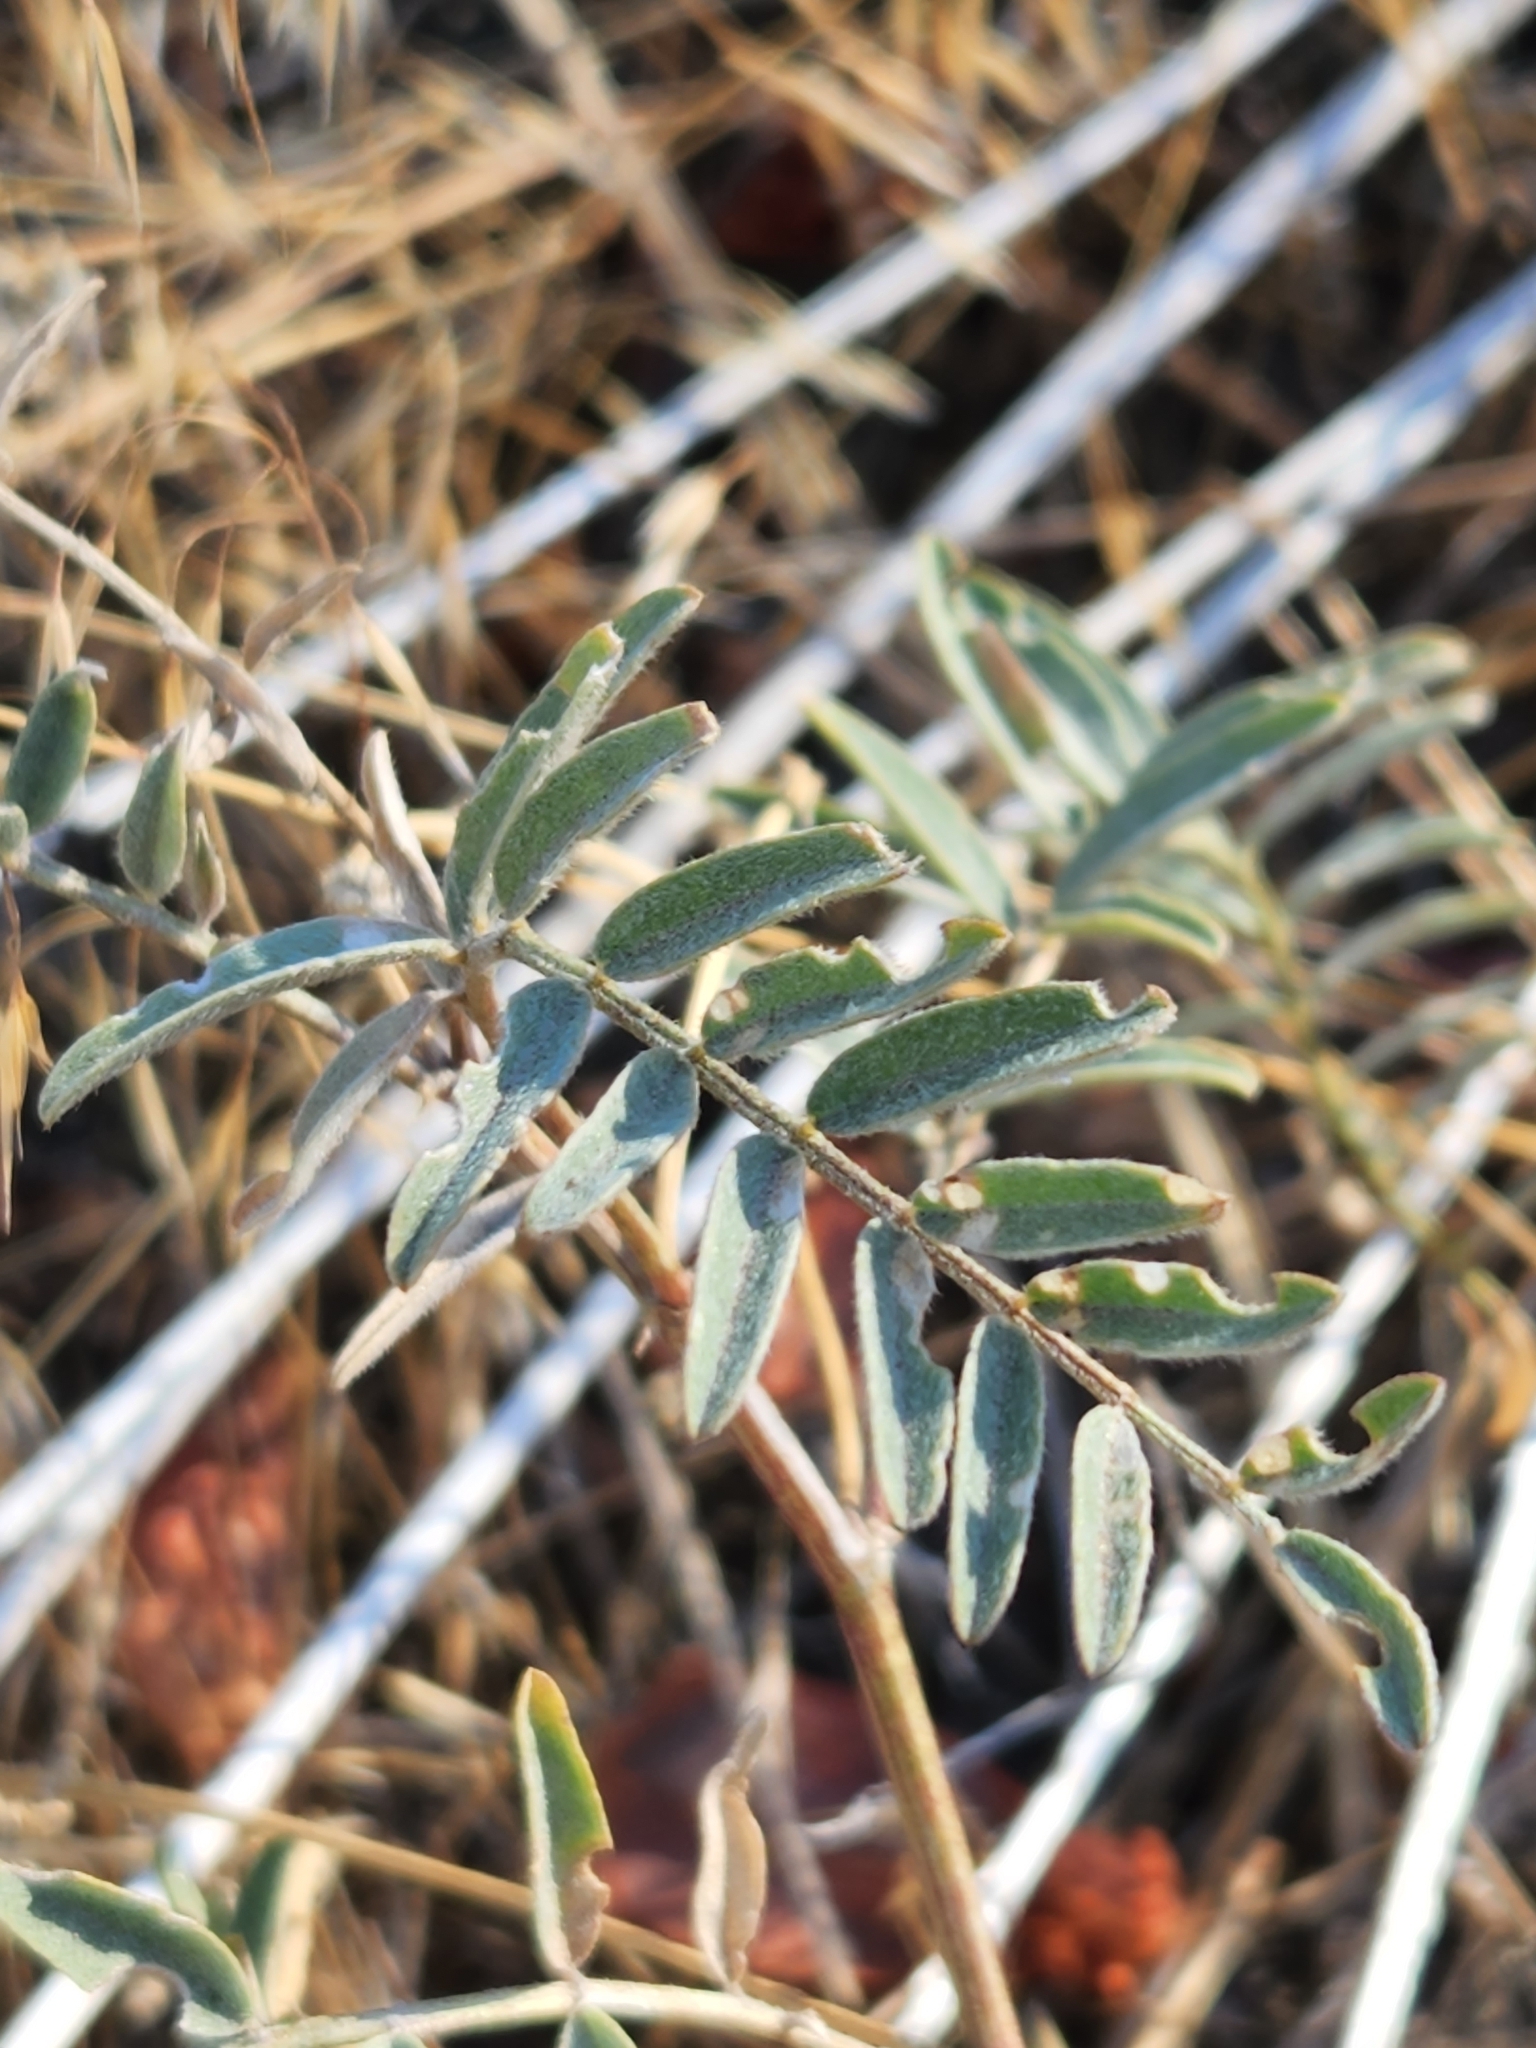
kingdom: Plantae
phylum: Tracheophyta
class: Magnoliopsida
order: Fabales
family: Fabaceae
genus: Astragalus
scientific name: Astragalus douglasii
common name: Jacumba milkvetch
